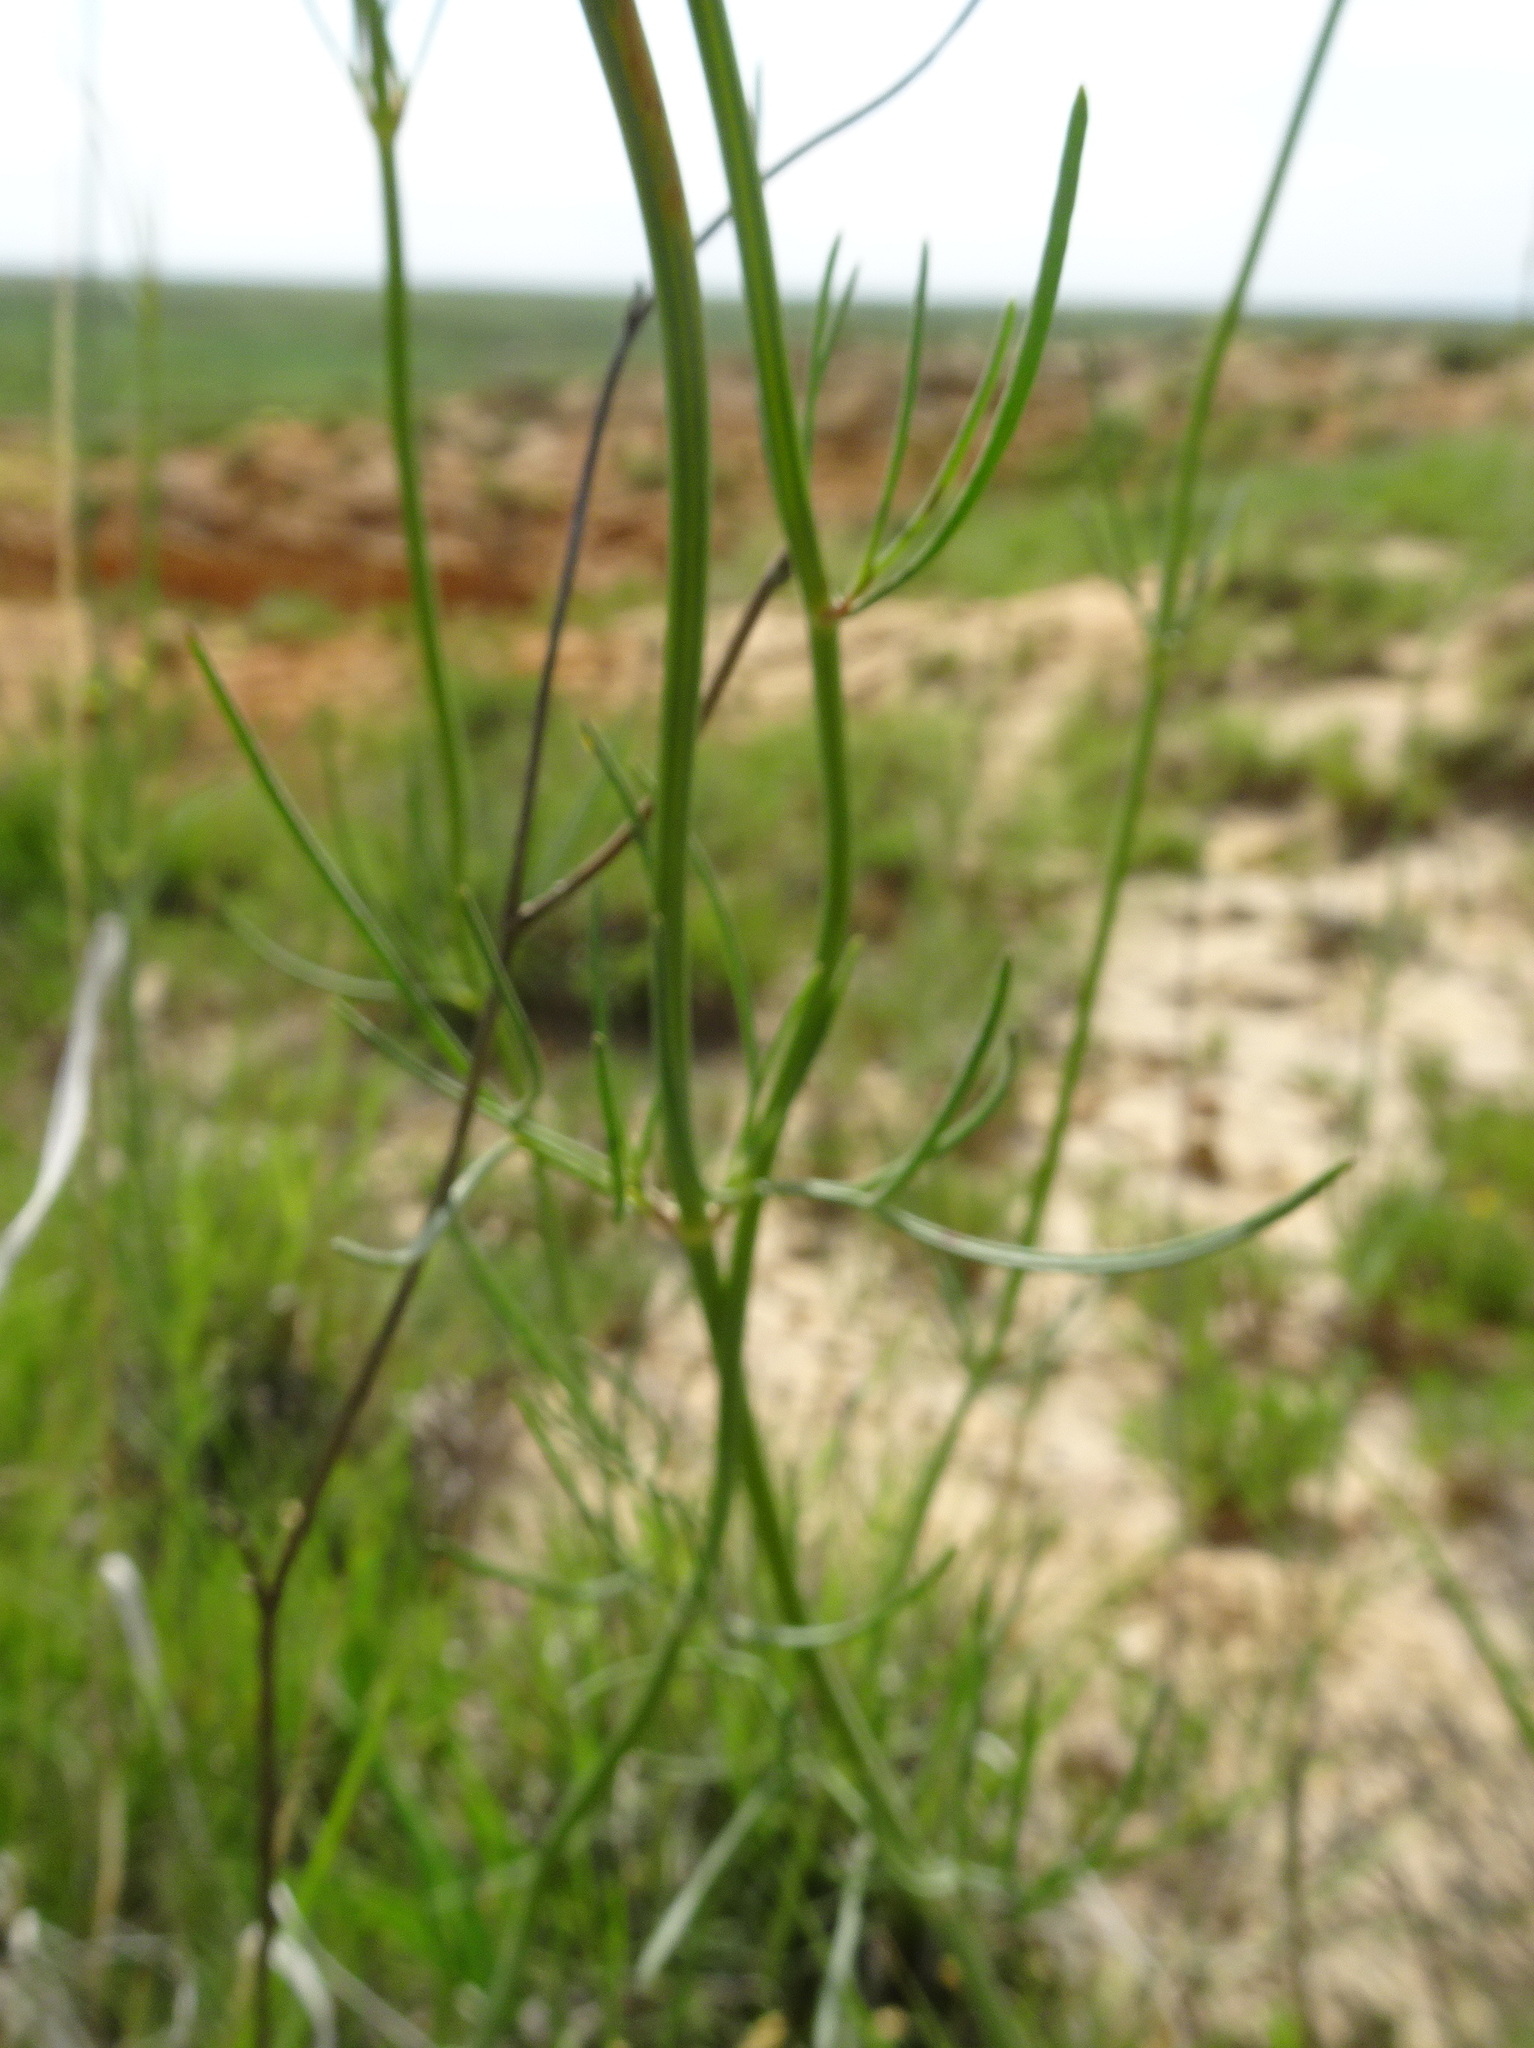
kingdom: Plantae
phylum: Tracheophyta
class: Magnoliopsida
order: Asterales
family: Asteraceae
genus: Thelesperma
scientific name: Thelesperma megapotamicum
